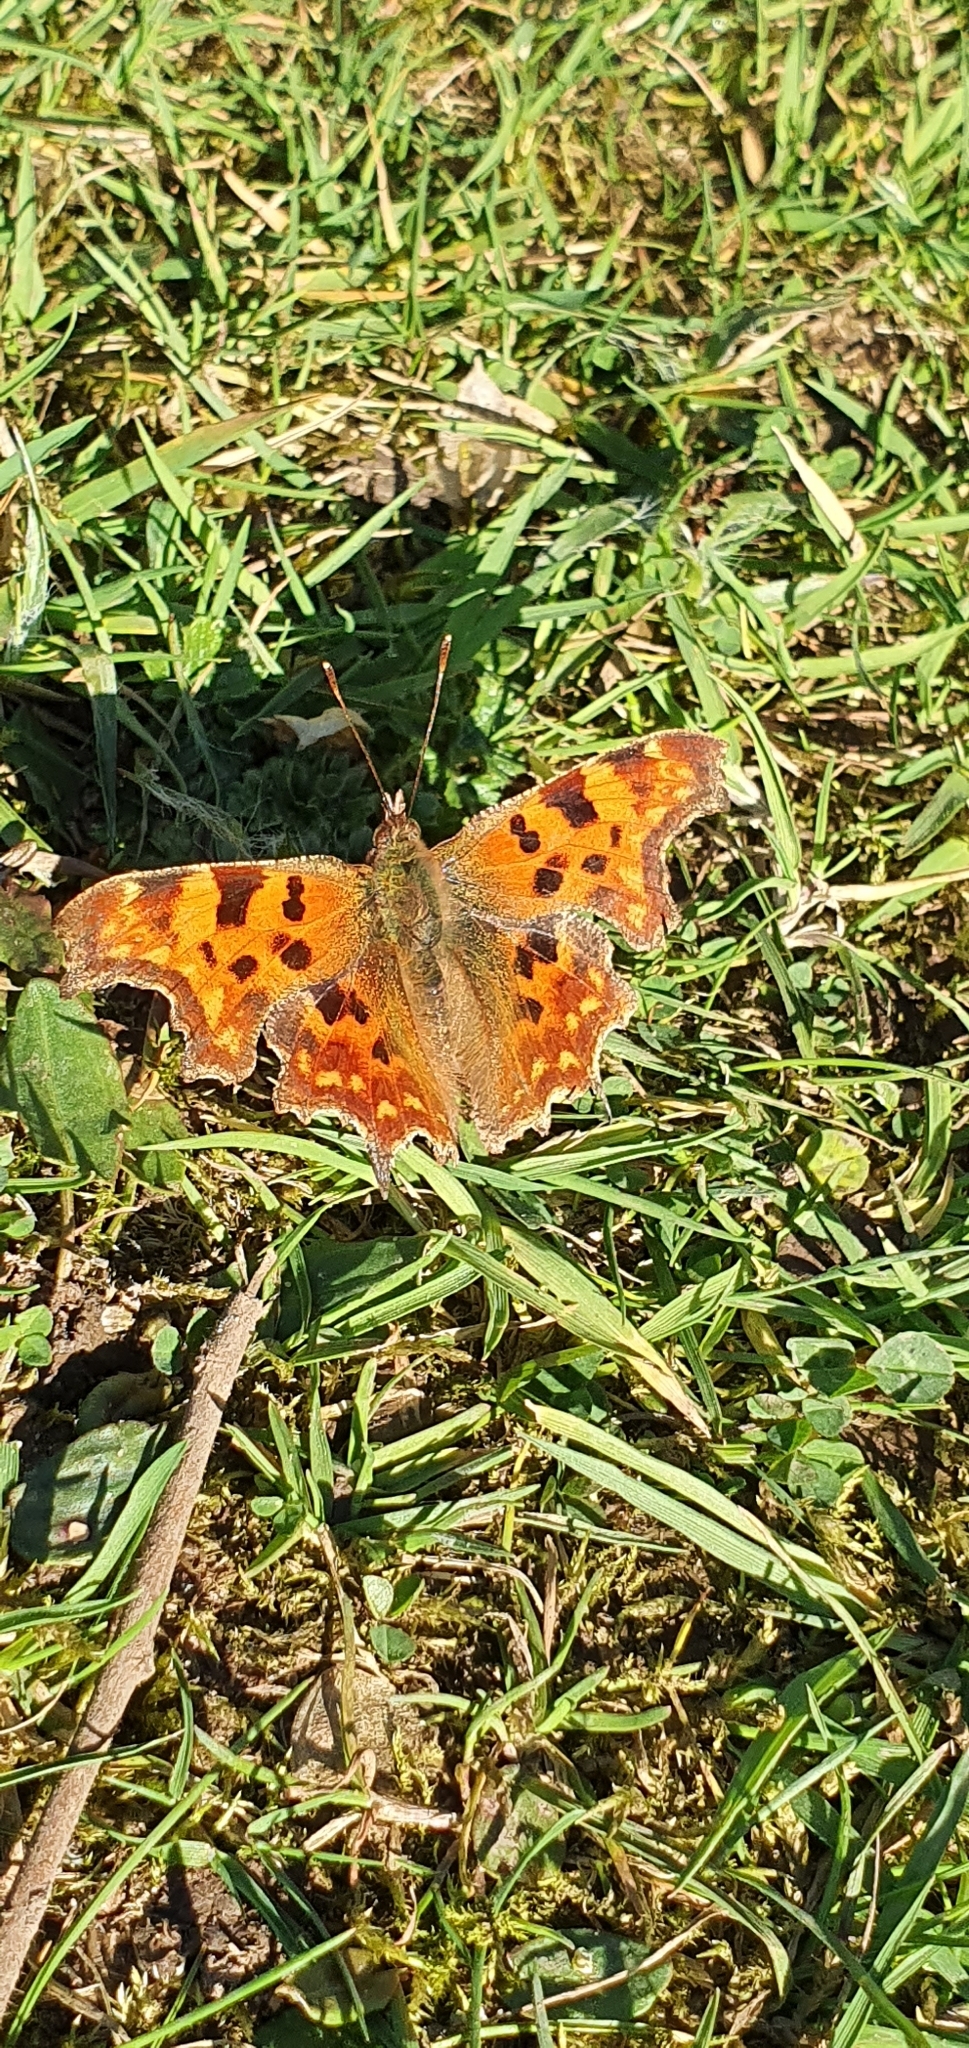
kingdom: Animalia
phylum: Arthropoda
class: Insecta
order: Lepidoptera
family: Nymphalidae
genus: Polygonia
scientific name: Polygonia c-album
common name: Comma
